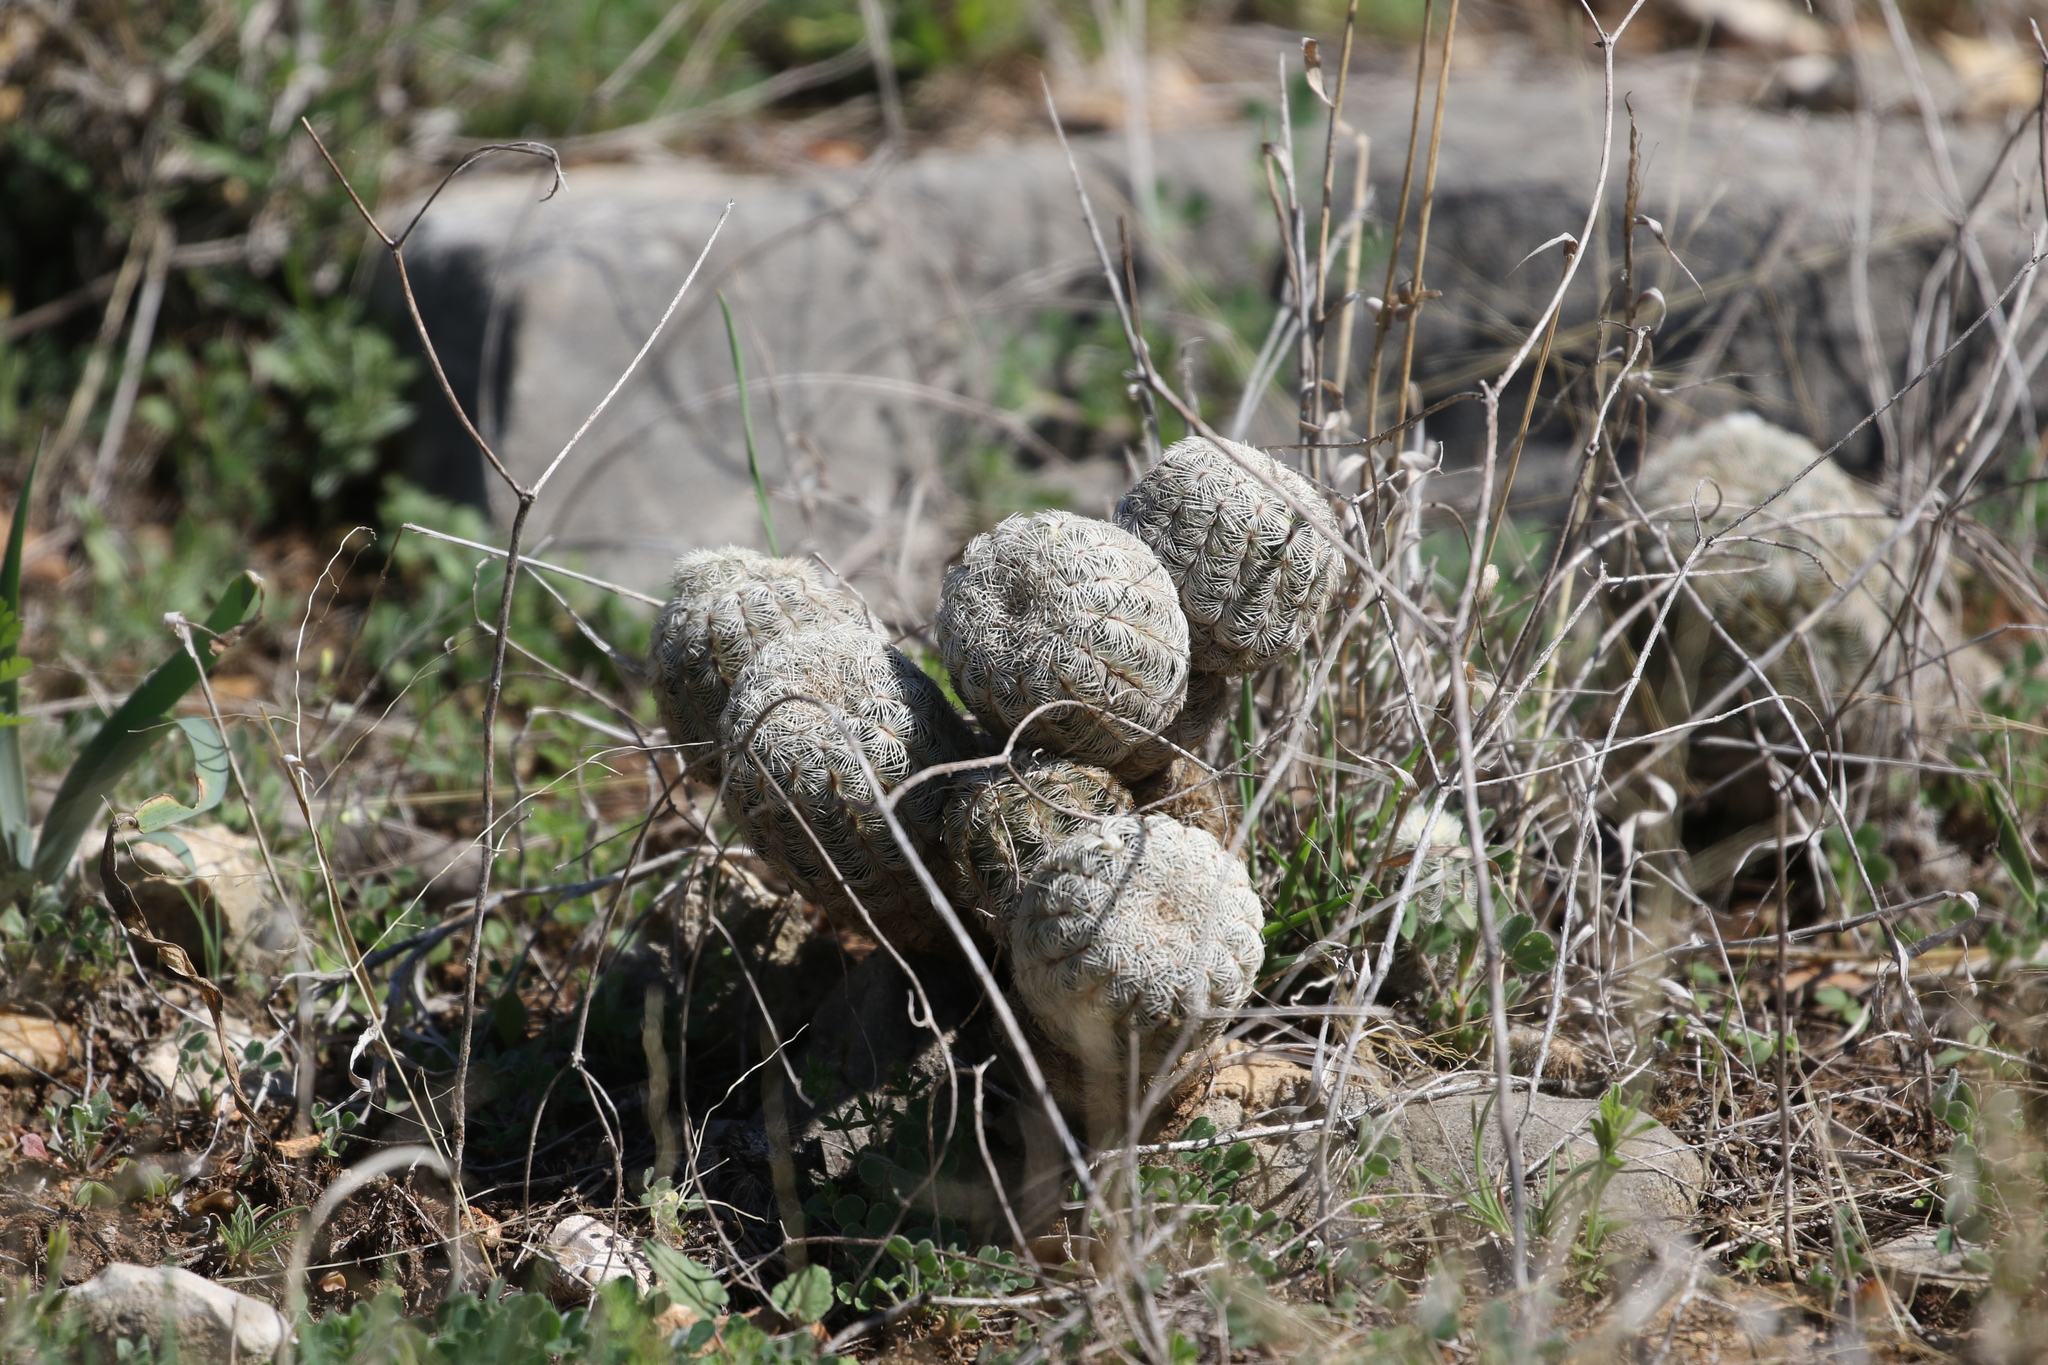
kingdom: Plantae
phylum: Tracheophyta
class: Magnoliopsida
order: Caryophyllales
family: Cactaceae
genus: Echinocereus
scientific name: Echinocereus reichenbachii
